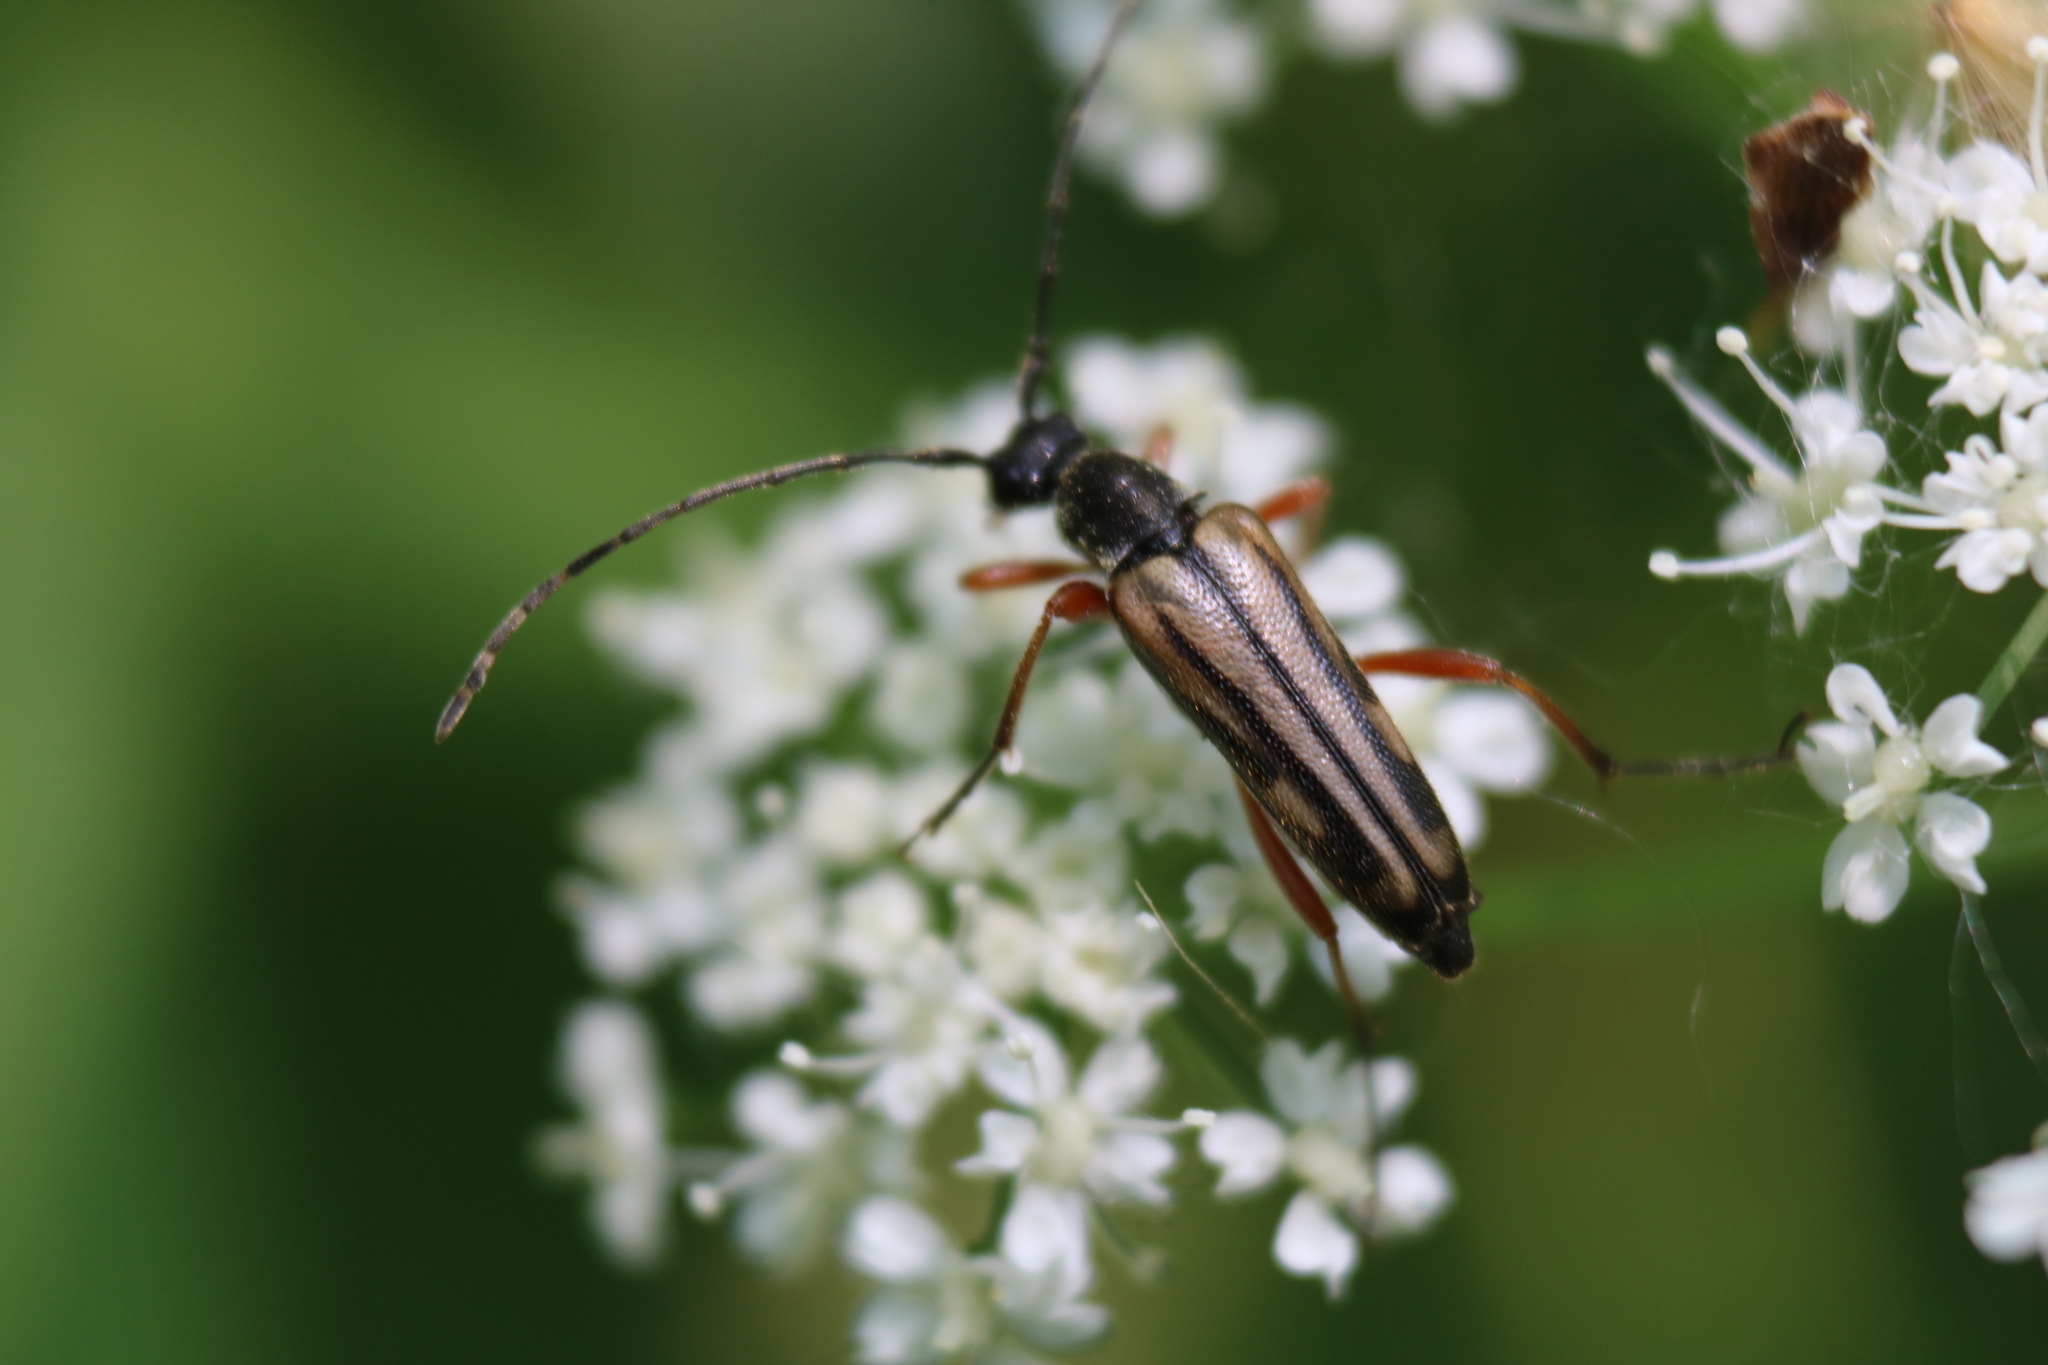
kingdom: Animalia
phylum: Arthropoda
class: Insecta
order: Coleoptera
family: Cerambycidae
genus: Analeptura
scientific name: Analeptura lineola
